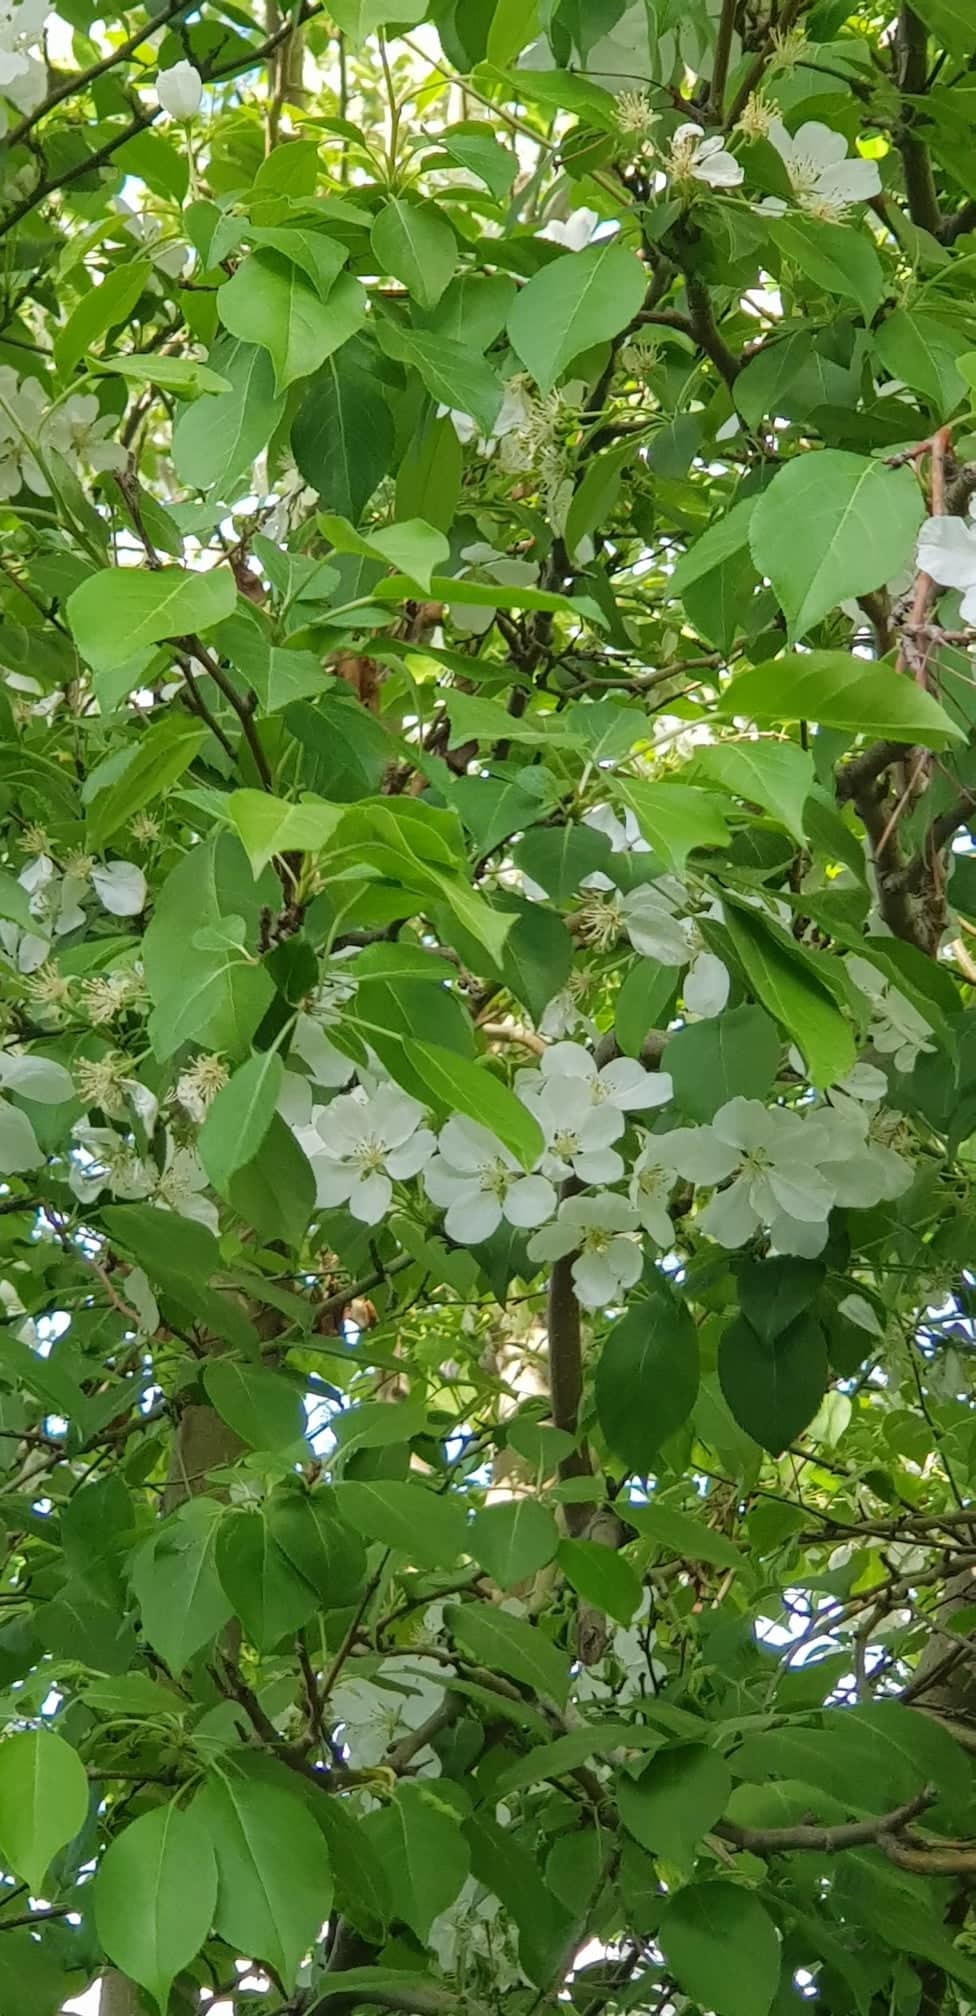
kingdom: Plantae
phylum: Tracheophyta
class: Magnoliopsida
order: Rosales
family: Rosaceae
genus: Malus
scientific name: Malus baccata
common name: Siberian crab
